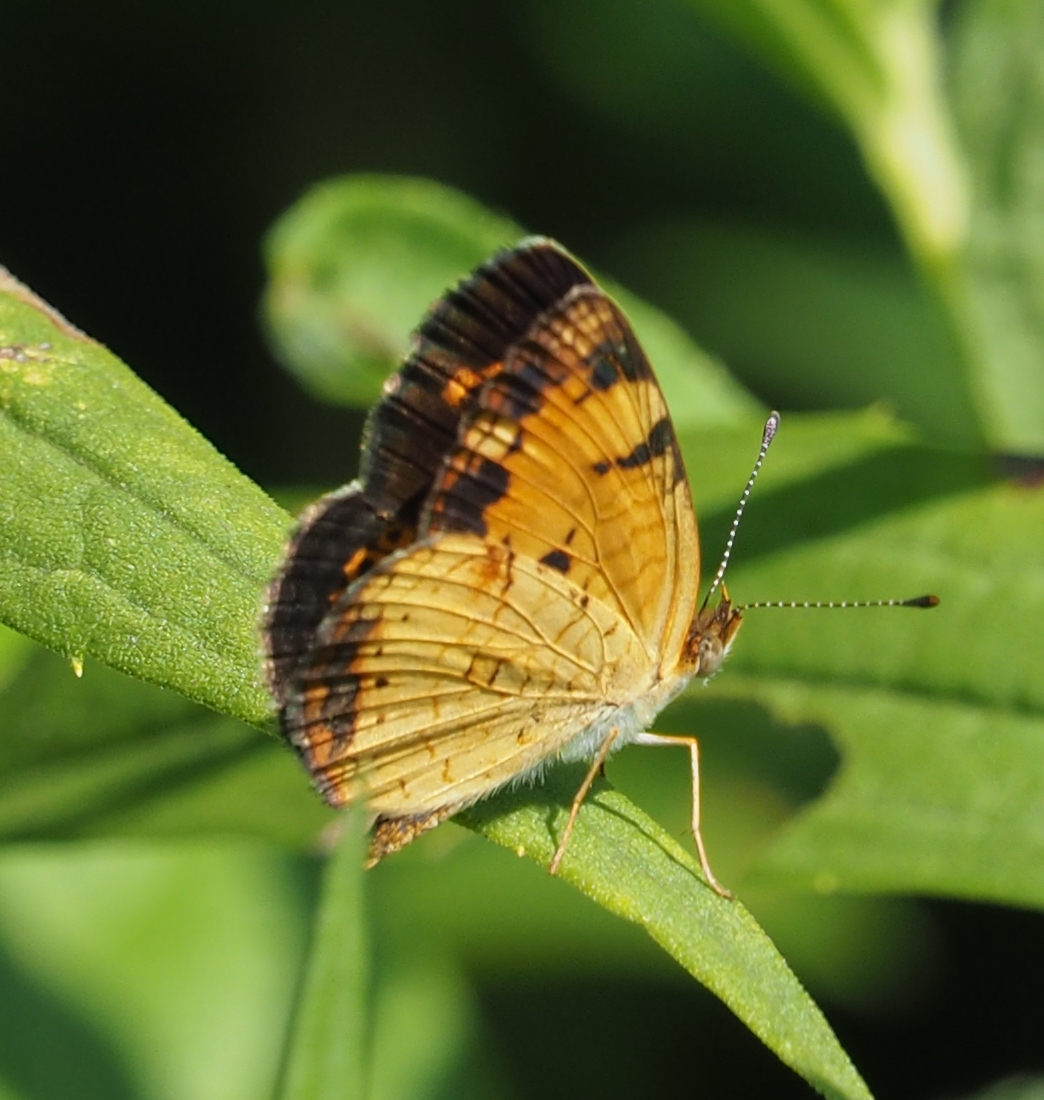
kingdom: Animalia
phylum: Arthropoda
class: Insecta
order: Lepidoptera
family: Nymphalidae
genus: Phyciodes
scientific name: Phyciodes tharos
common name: Pearl crescent
